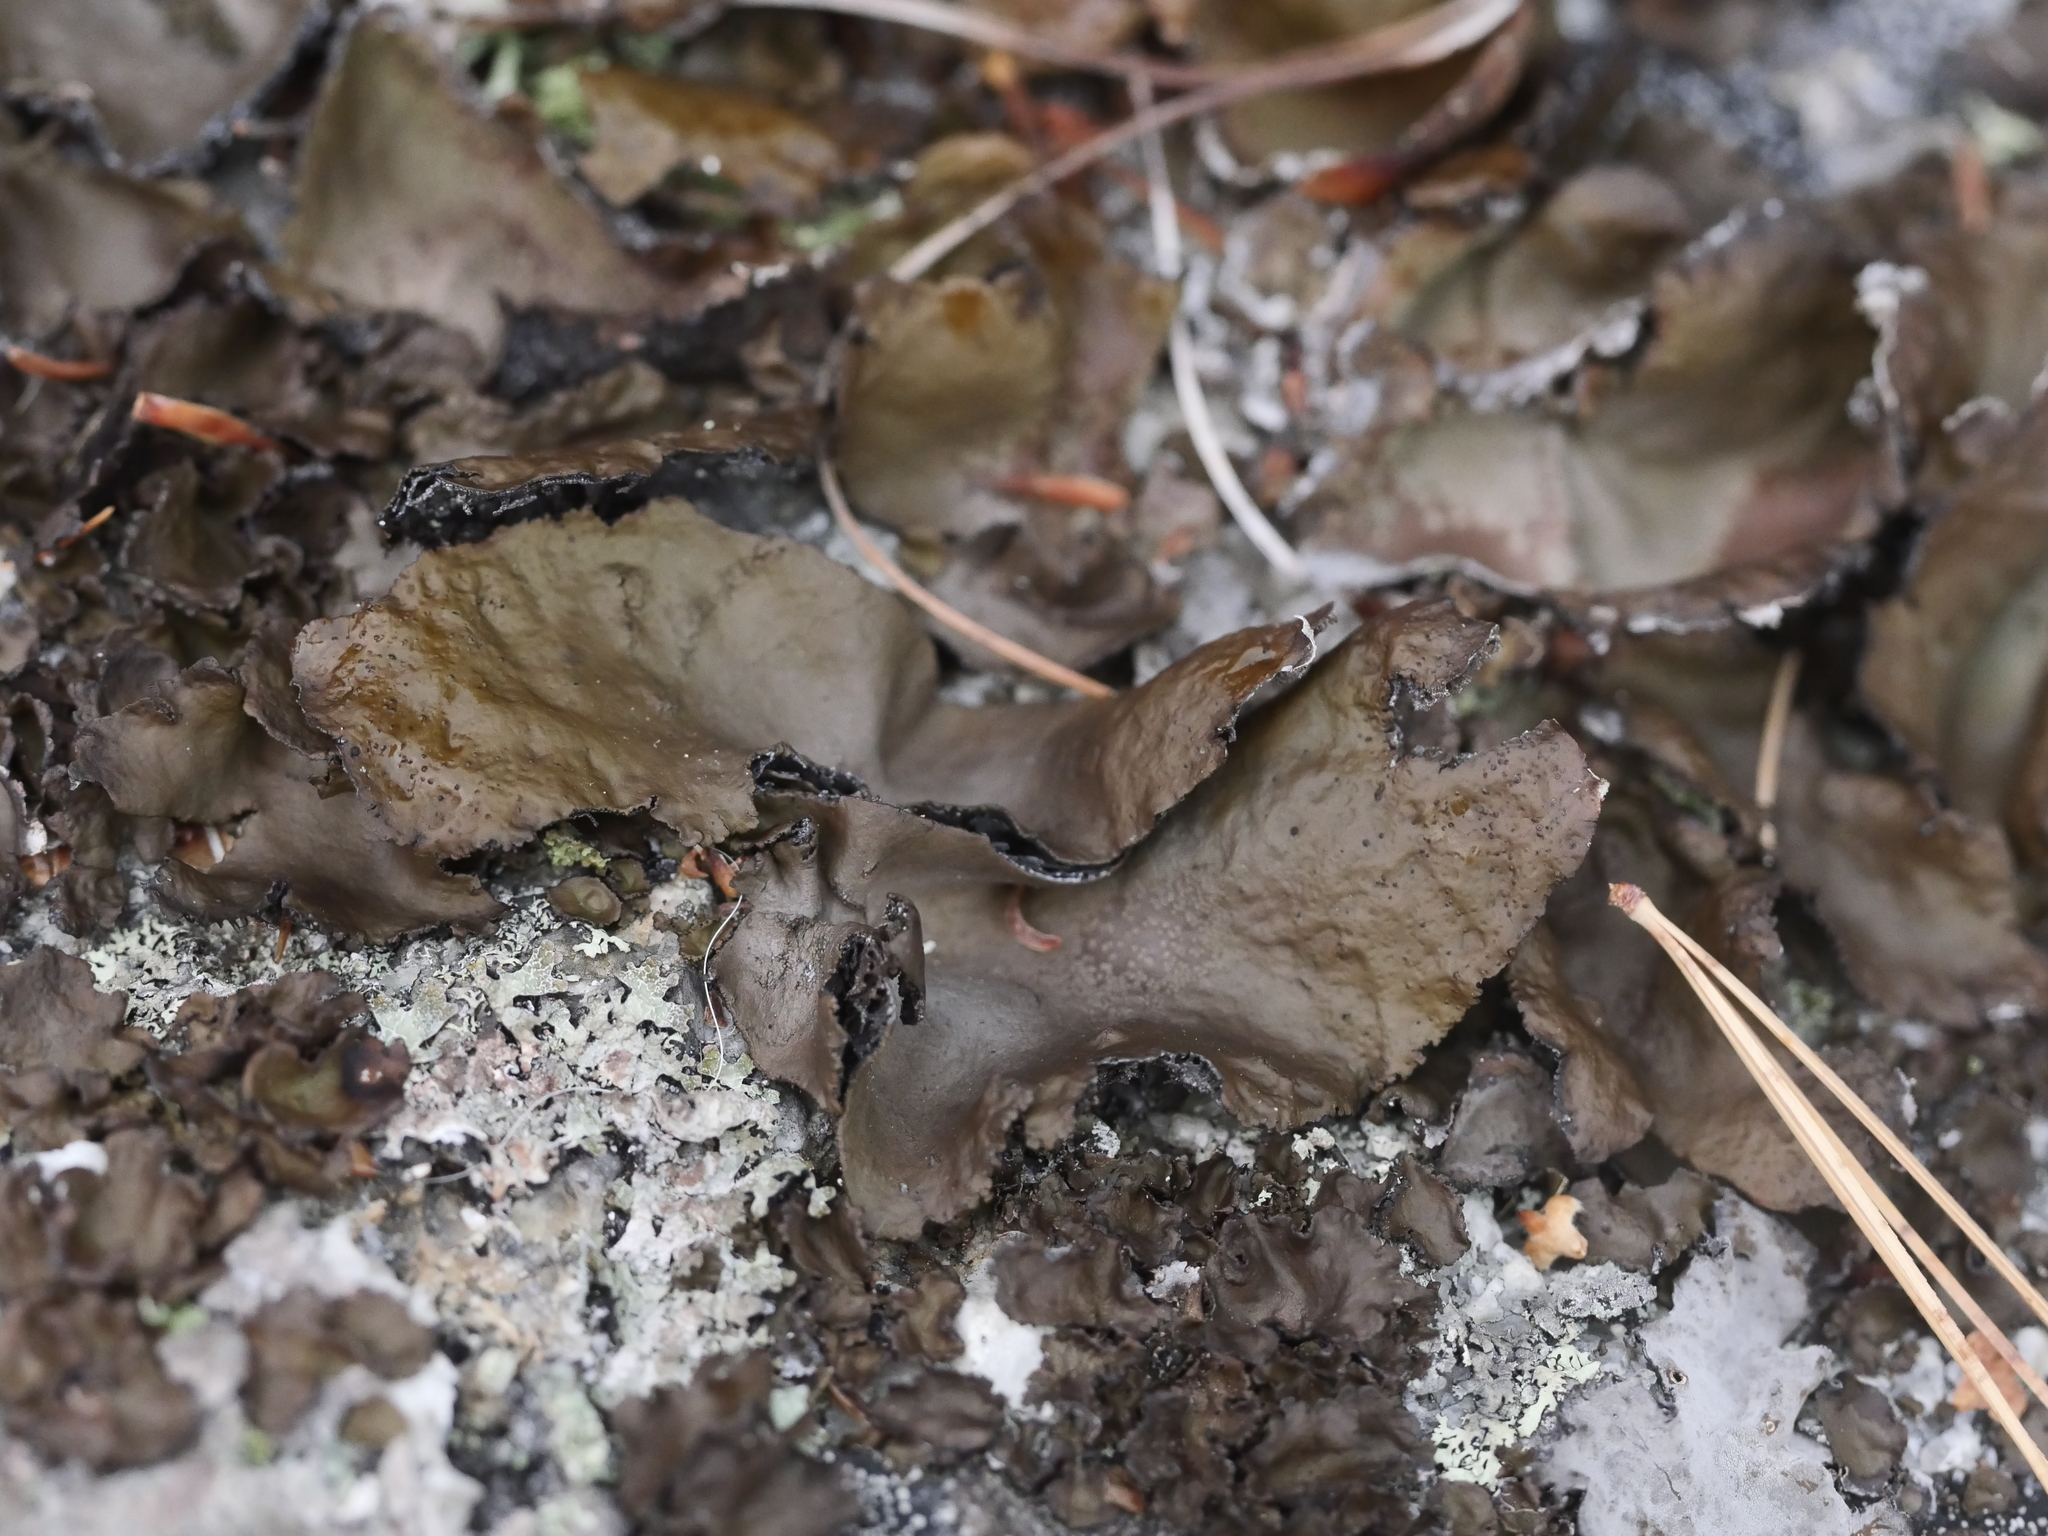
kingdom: Fungi
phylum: Ascomycota
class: Lecanoromycetes
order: Umbilicariales
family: Umbilicariaceae
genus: Umbilicaria
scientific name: Umbilicaria muhlenbergii
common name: Lesser rocktripe
